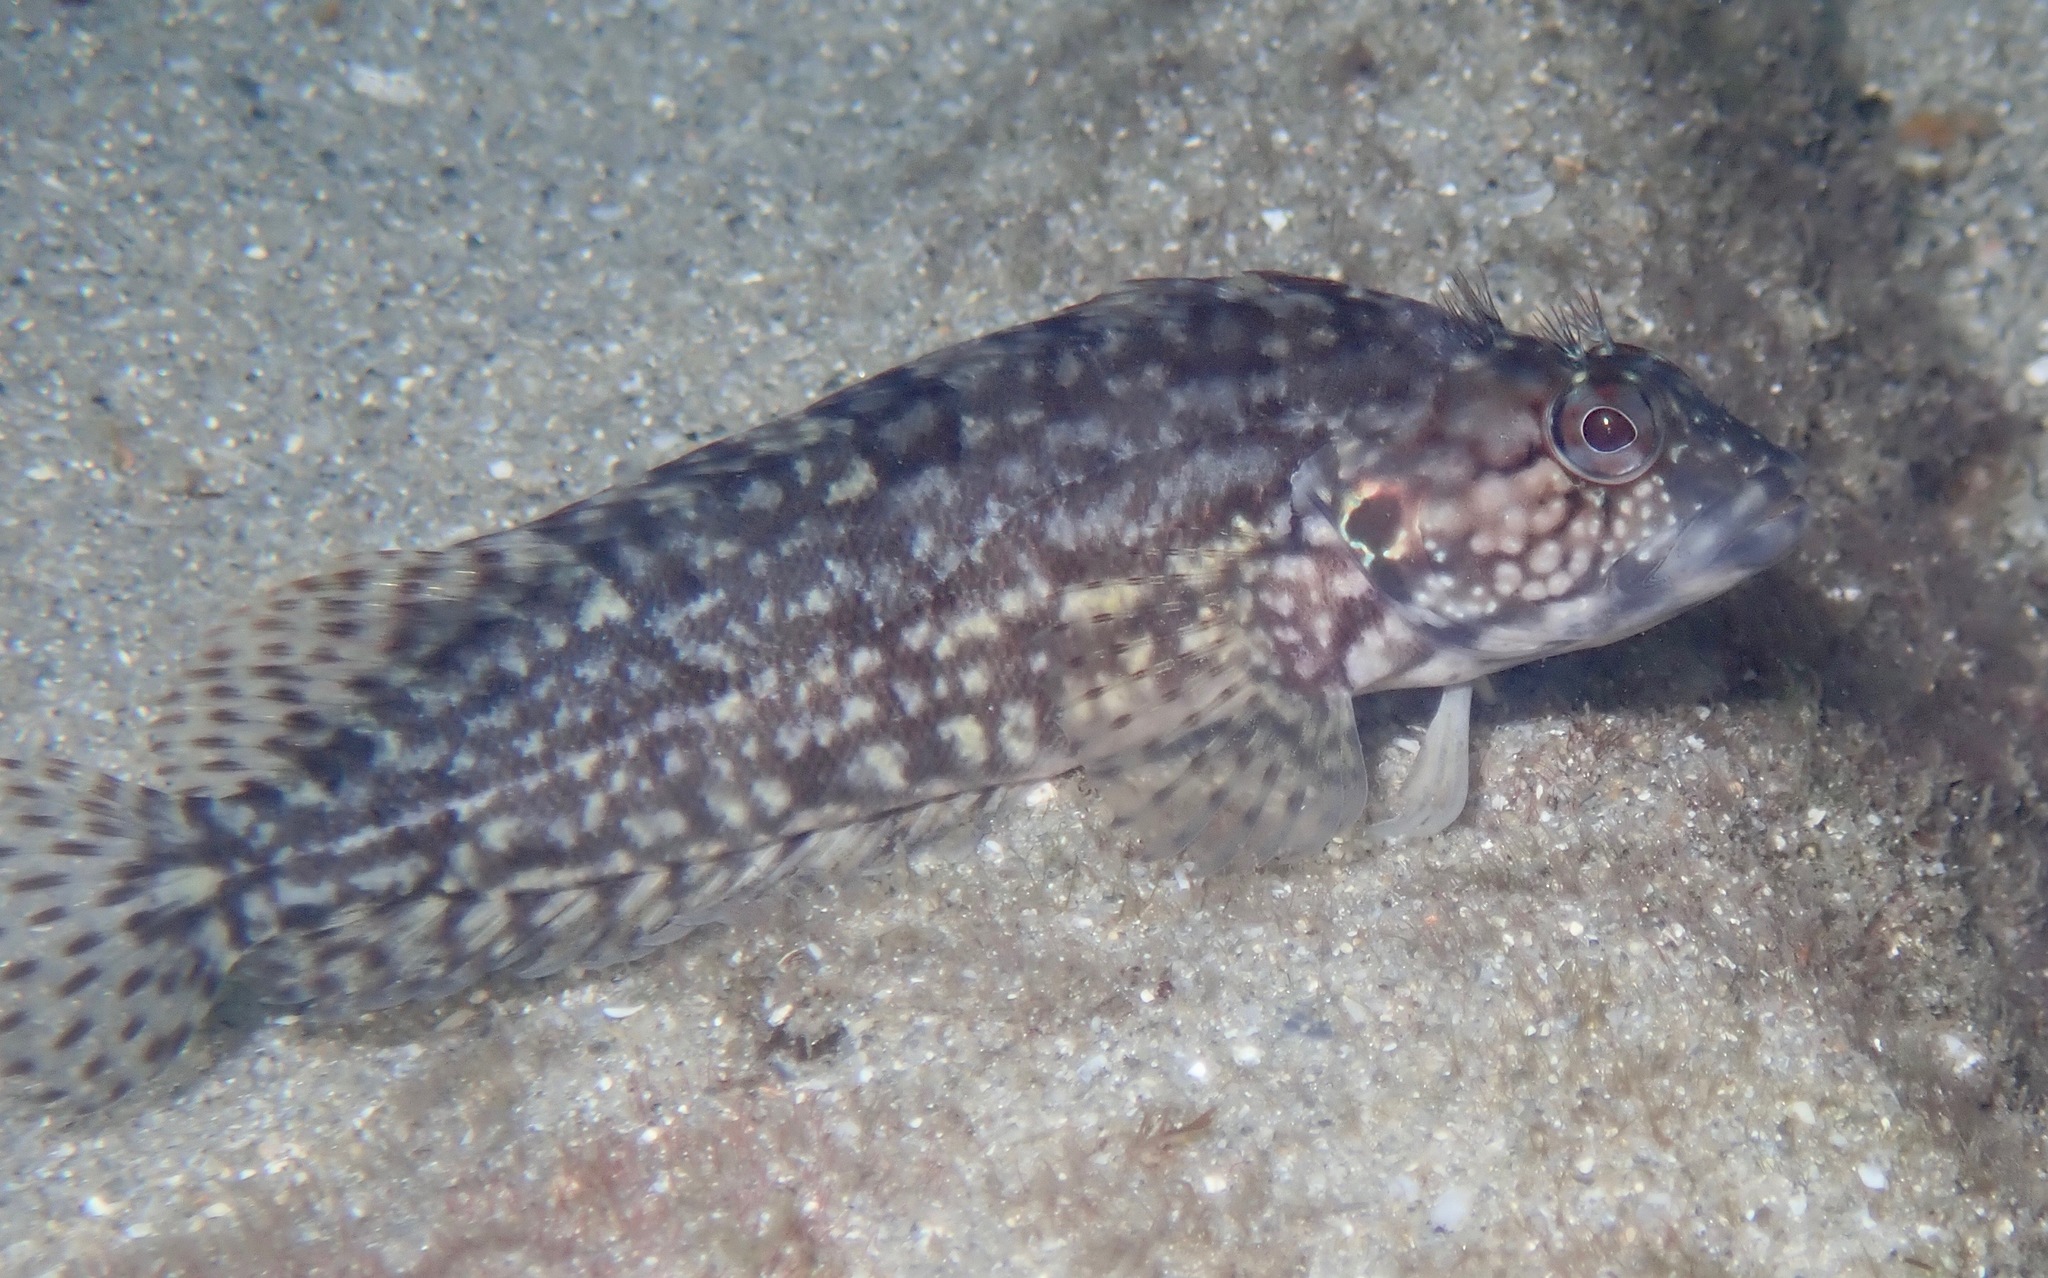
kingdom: Animalia
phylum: Chordata
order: Perciformes
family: Labrisomidae
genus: Labrisomus
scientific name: Labrisomus conditus
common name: Masquerader hairy blenny
